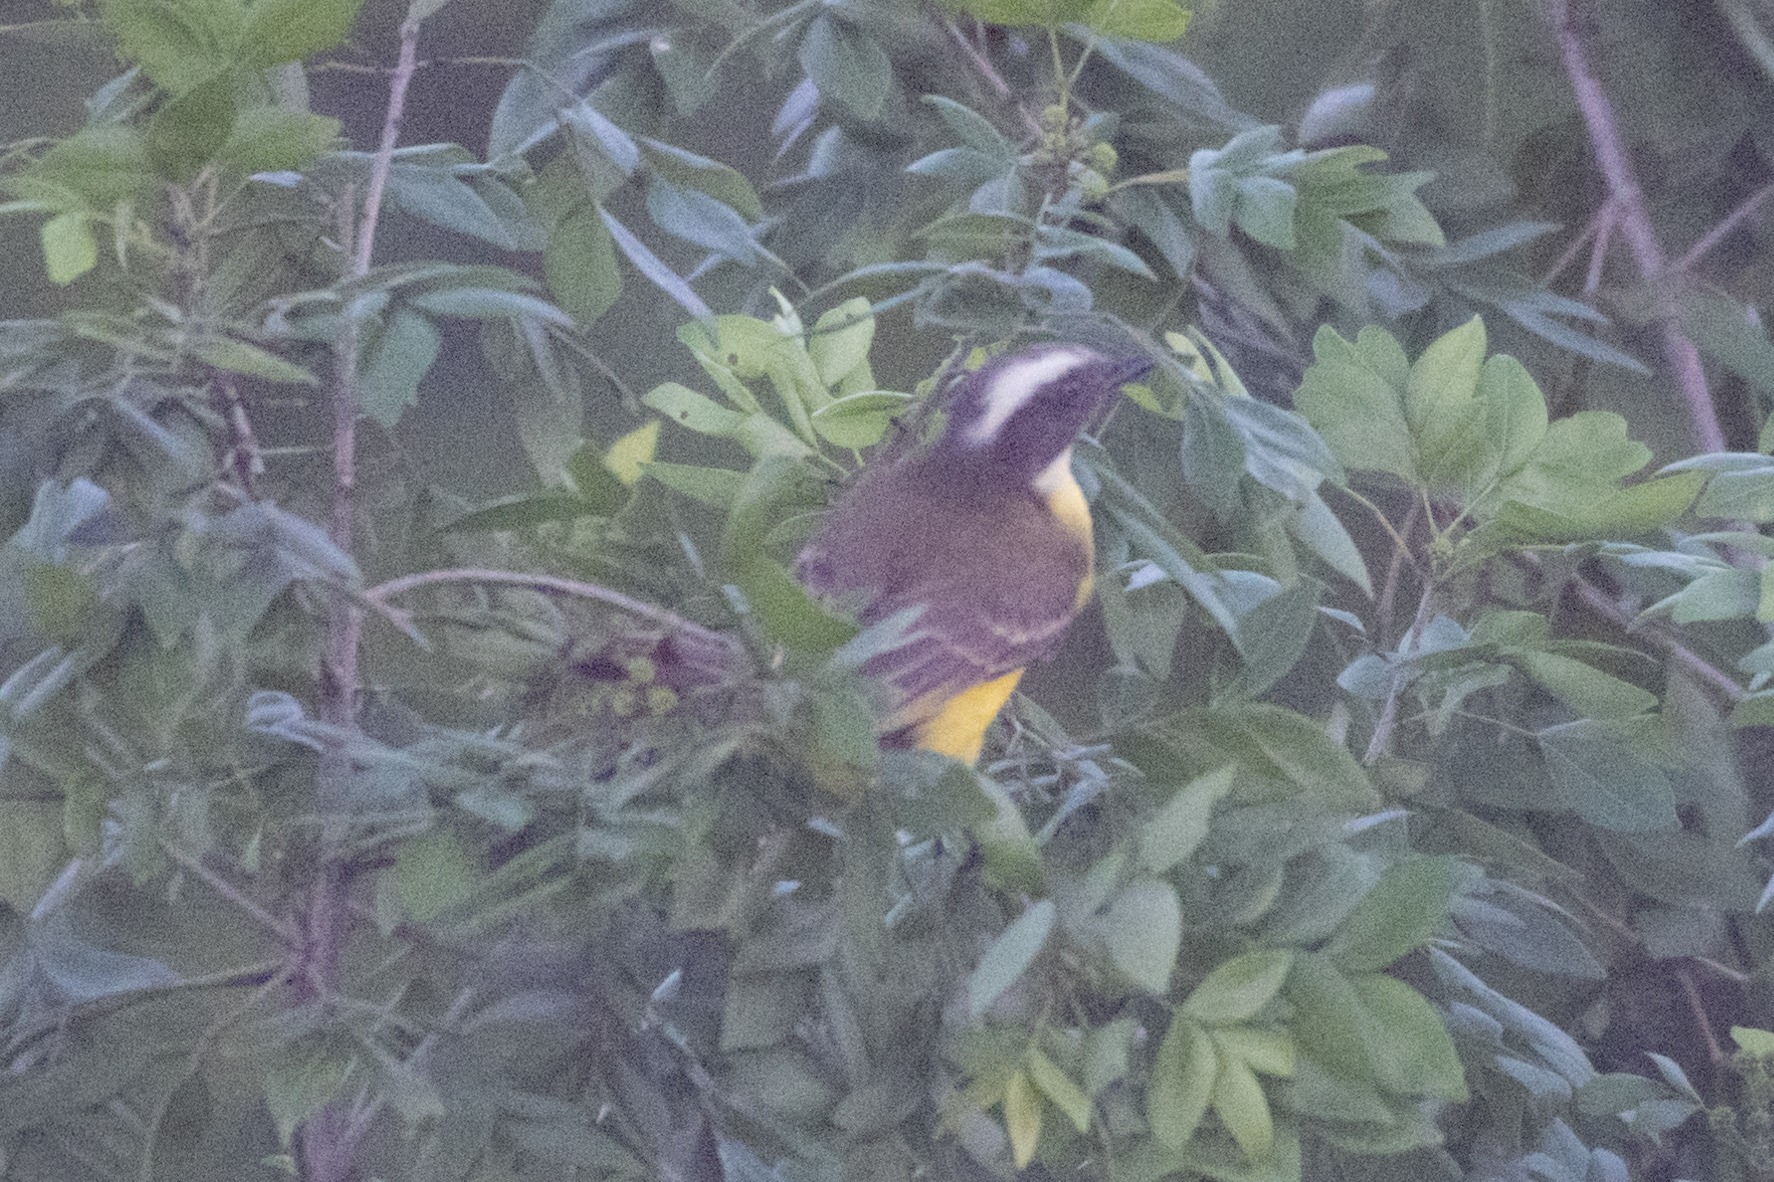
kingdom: Animalia
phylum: Chordata
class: Aves
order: Passeriformes
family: Tyrannidae
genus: Myiozetetes
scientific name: Myiozetetes similis
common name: Social flycatcher
